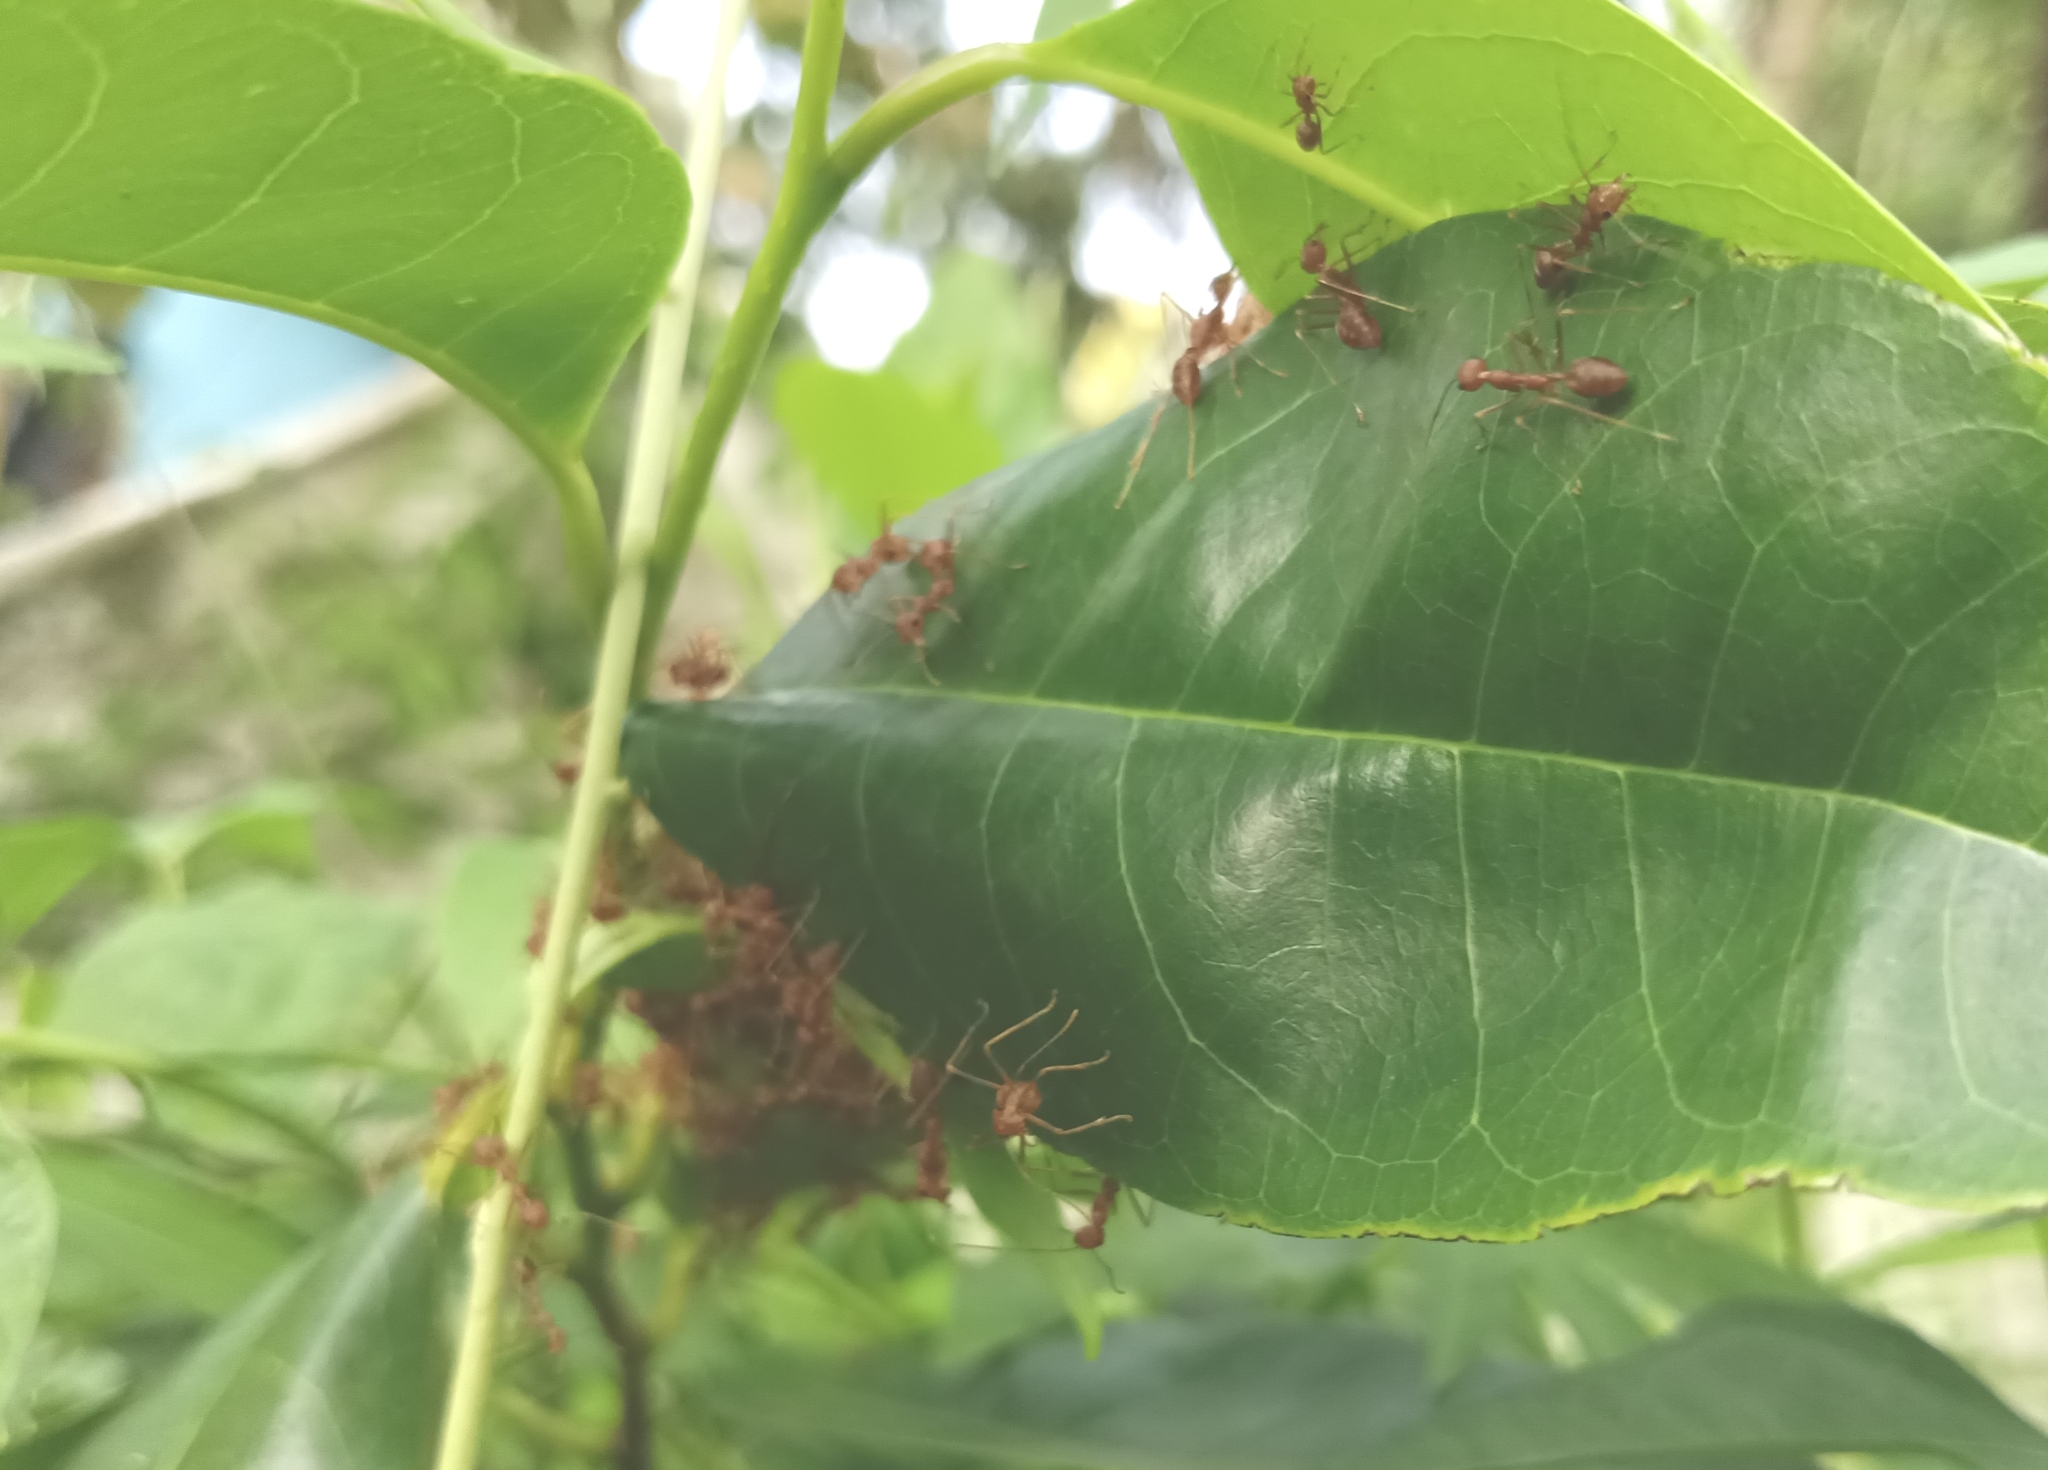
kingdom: Animalia
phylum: Arthropoda
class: Insecta
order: Hymenoptera
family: Formicidae
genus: Oecophylla
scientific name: Oecophylla smaragdina
